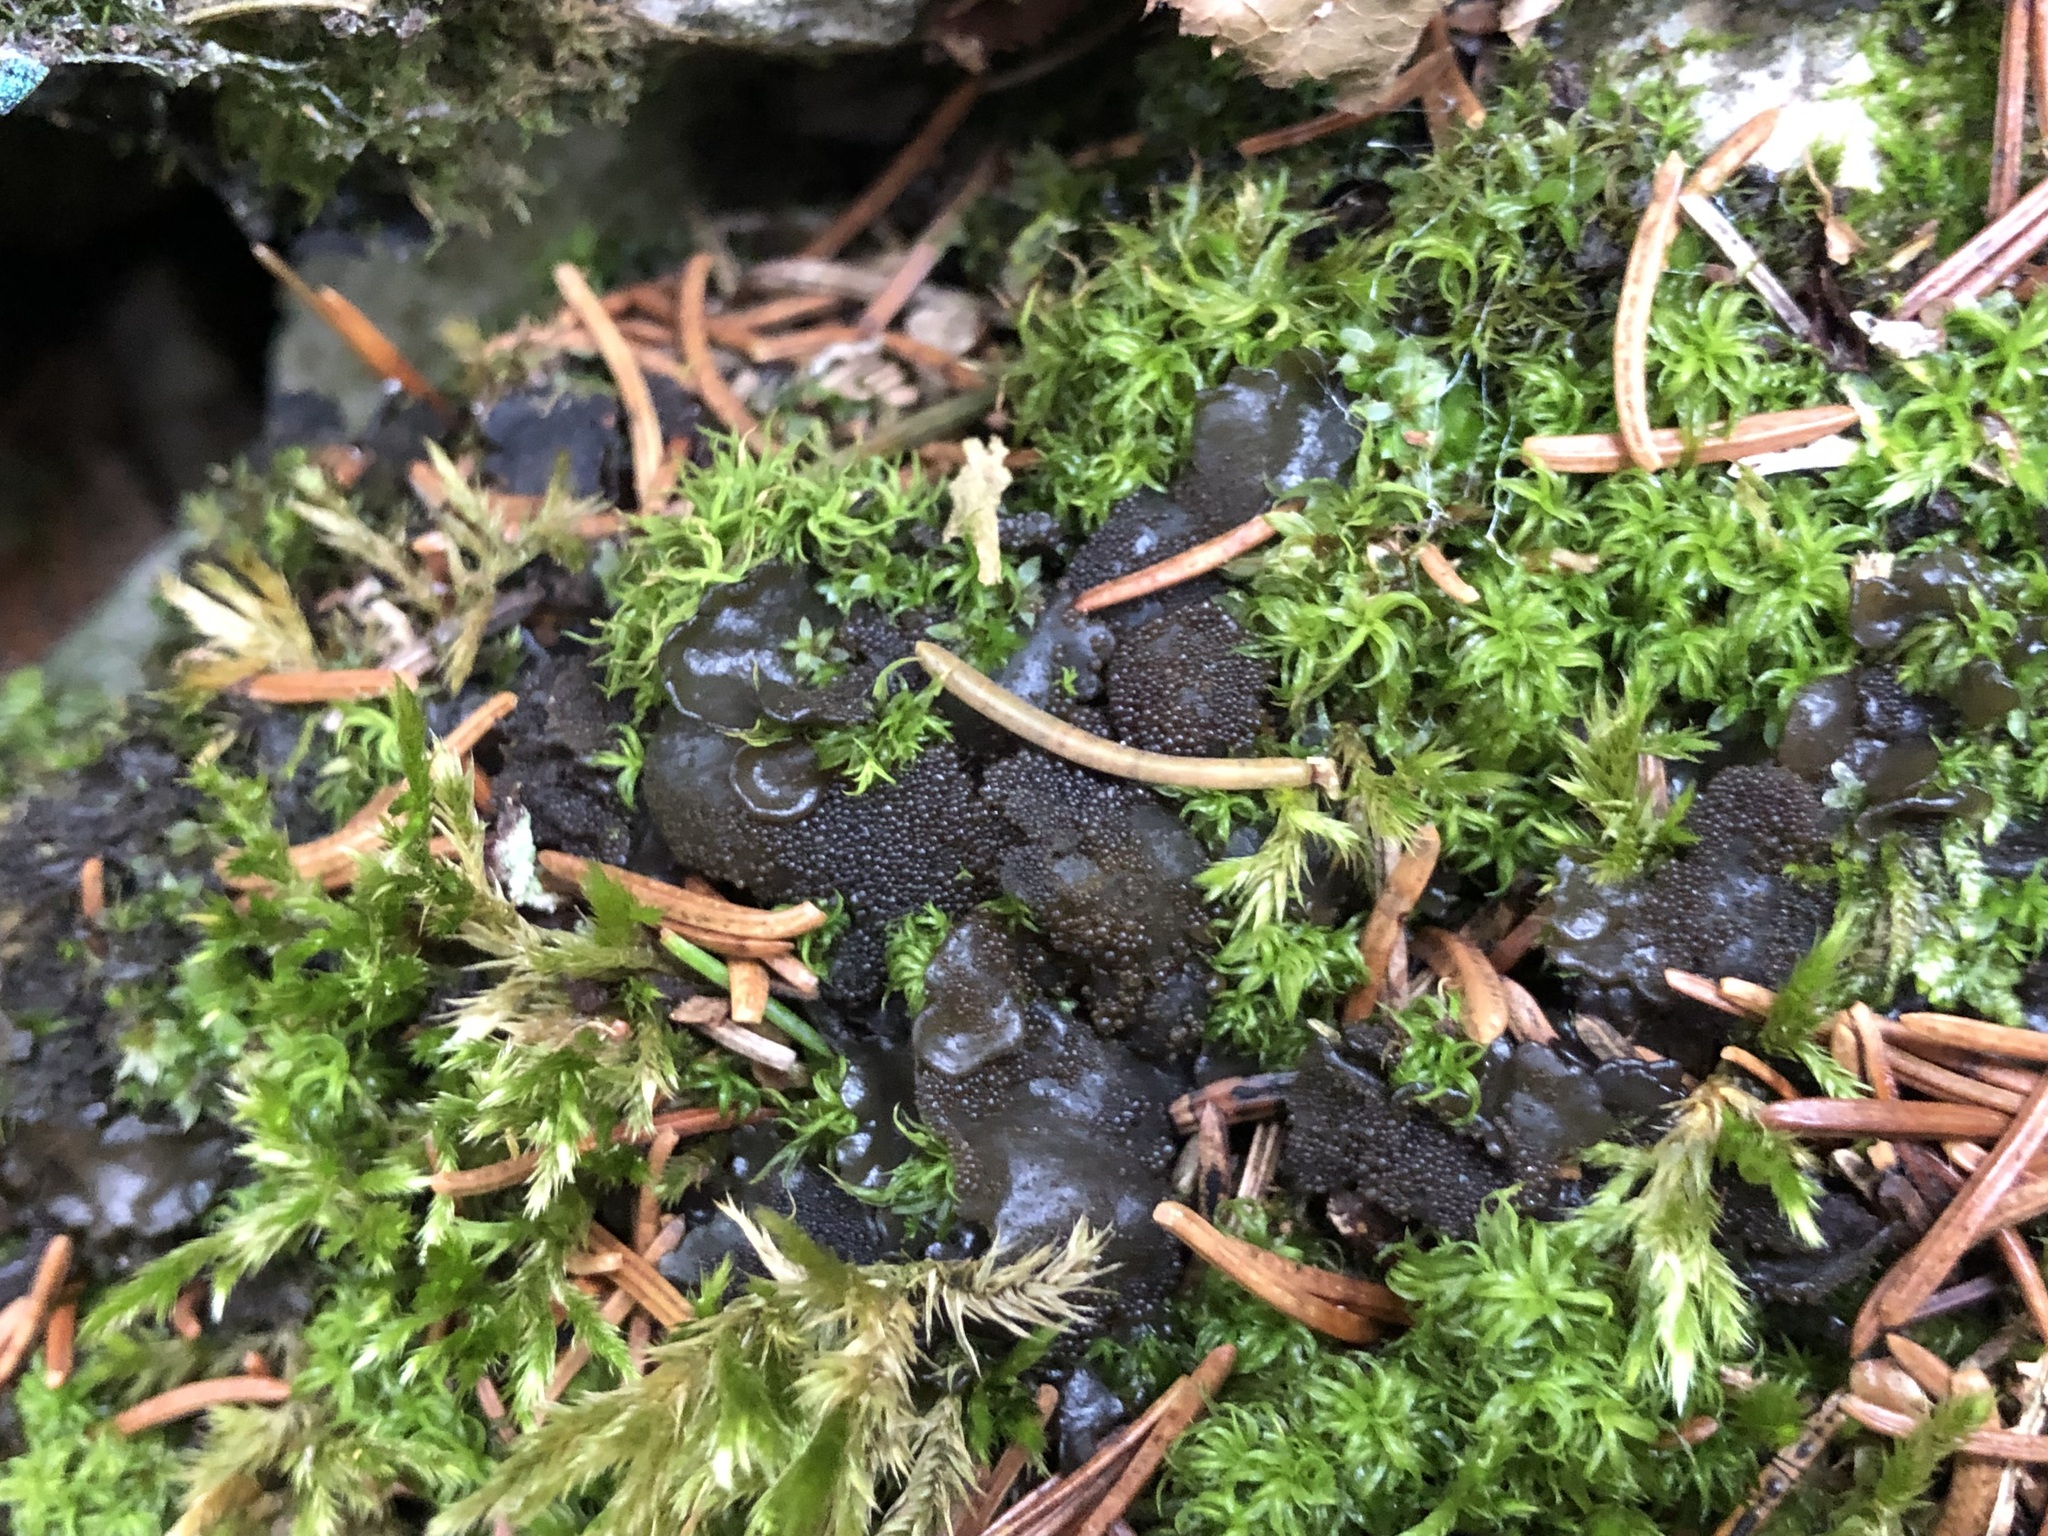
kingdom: Fungi
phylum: Ascomycota
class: Lecanoromycetes
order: Peltigerales
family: Collemataceae
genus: Lathagrium
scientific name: Lathagrium auriforme
